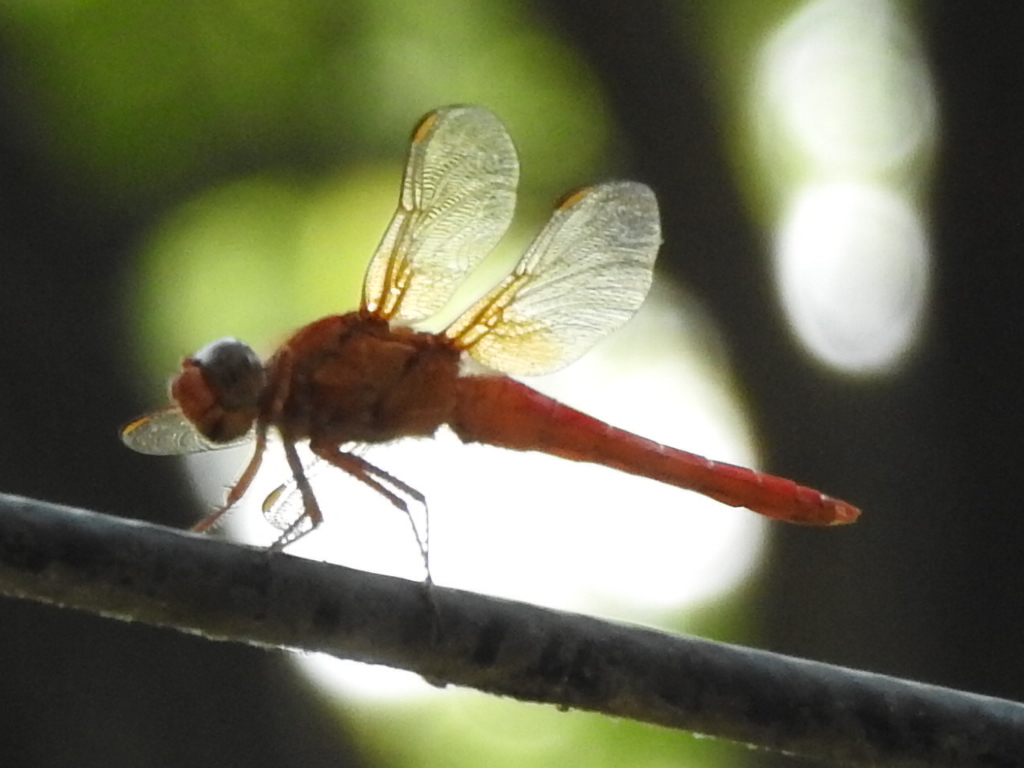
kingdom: Animalia
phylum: Arthropoda
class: Insecta
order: Odonata
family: Libellulidae
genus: Libellula
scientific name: Libellula croceipennis
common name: Neon skimmer
